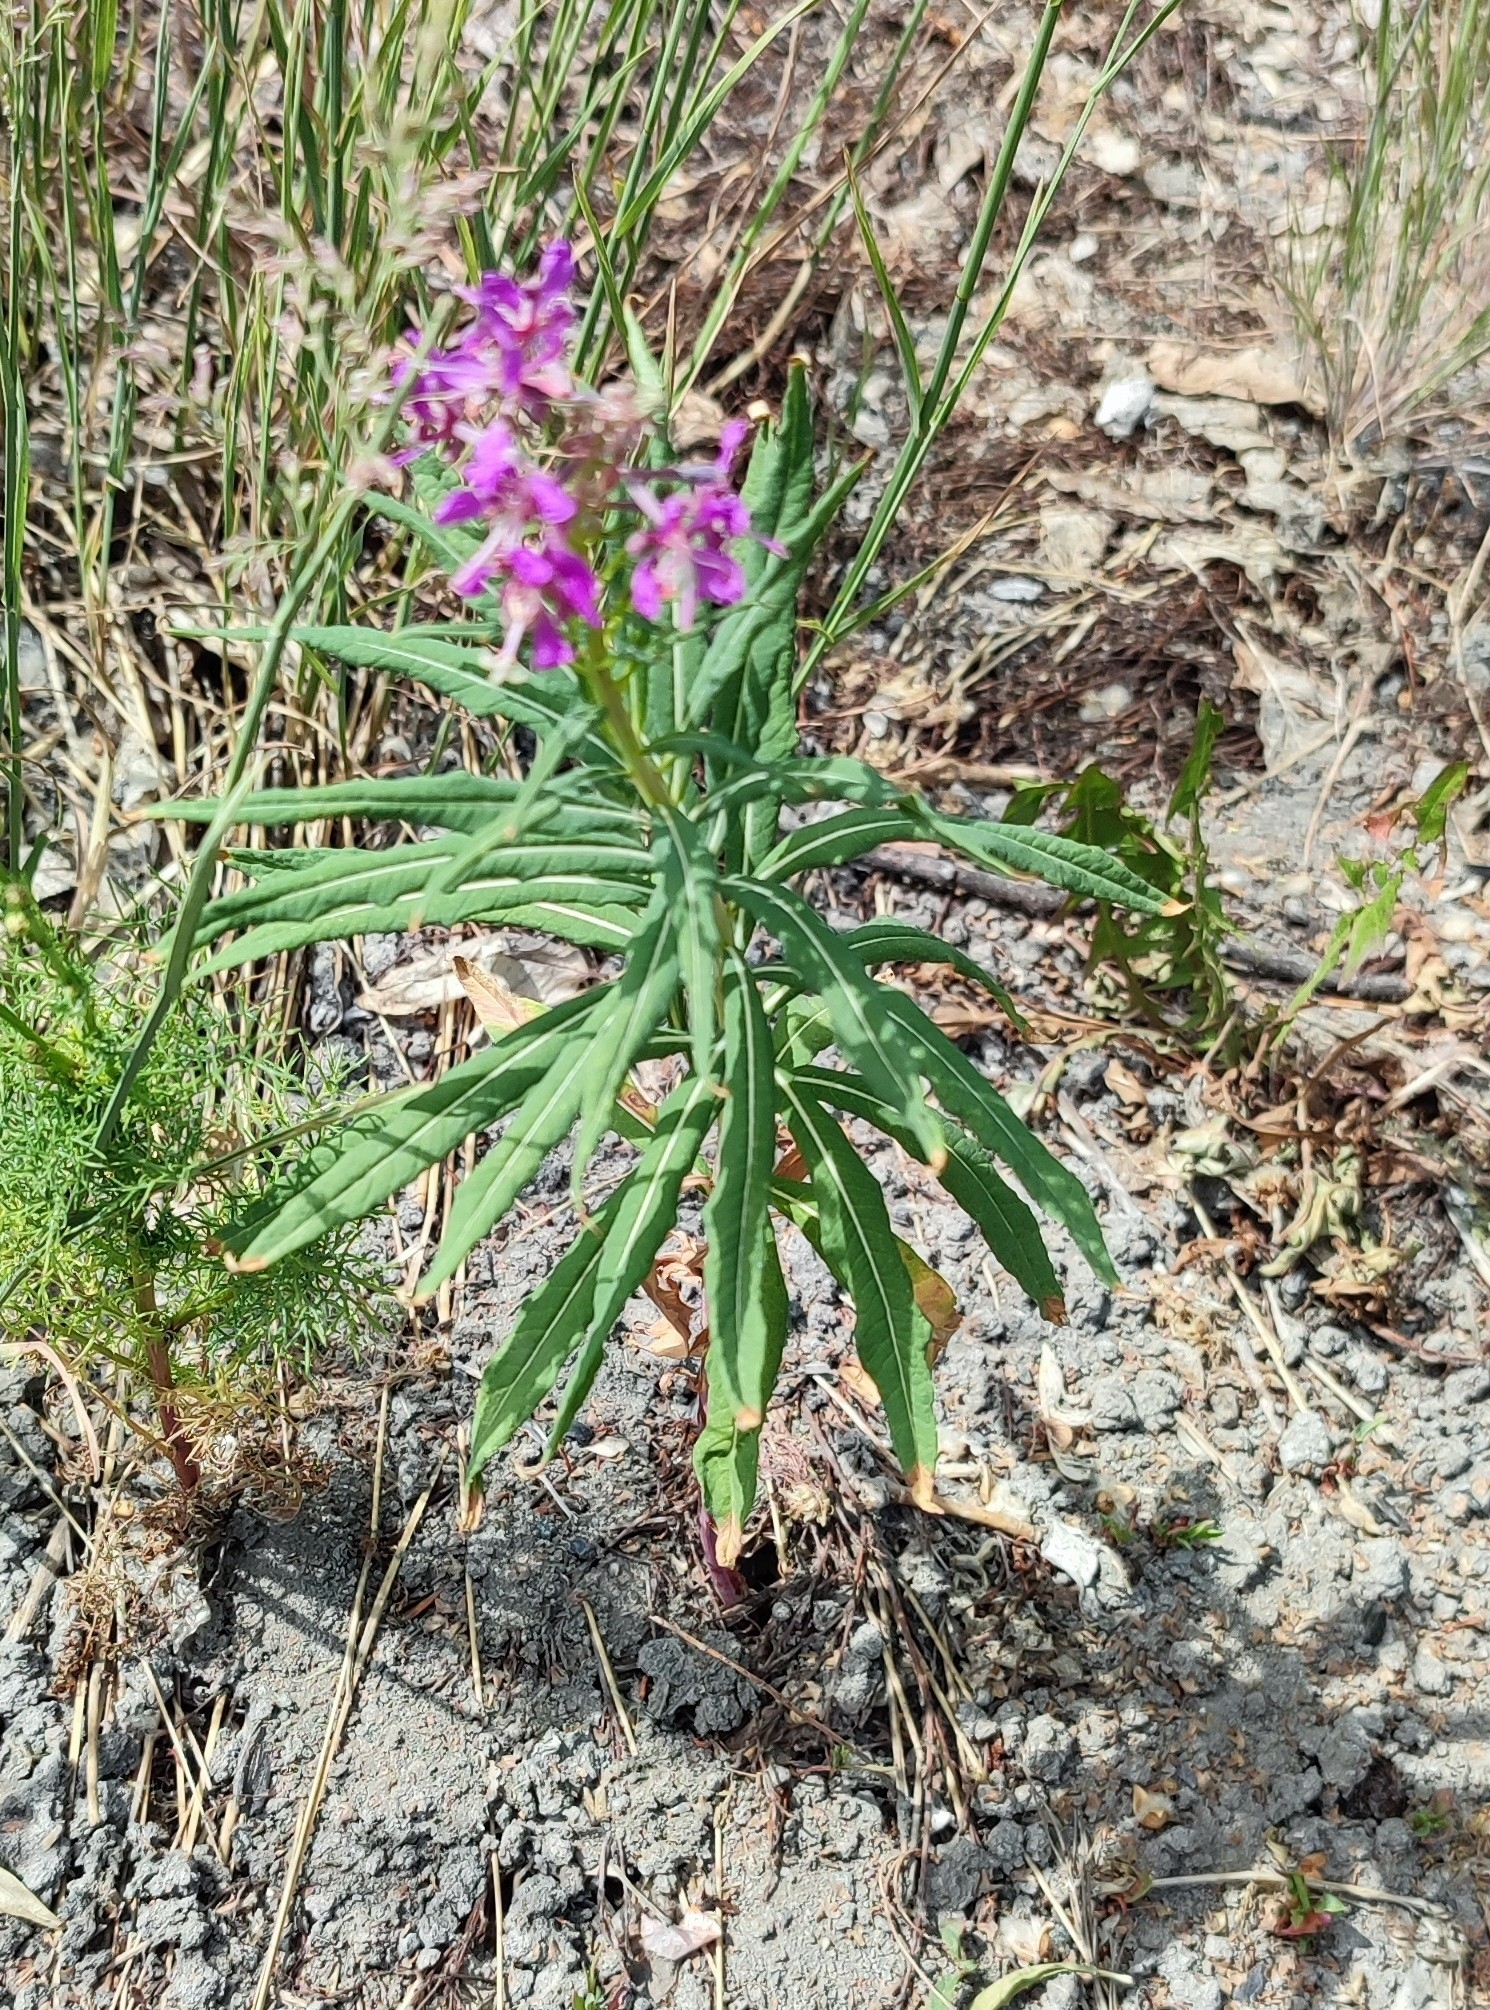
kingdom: Plantae
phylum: Tracheophyta
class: Magnoliopsida
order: Myrtales
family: Onagraceae
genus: Chamaenerion
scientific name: Chamaenerion angustifolium
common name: Fireweed
